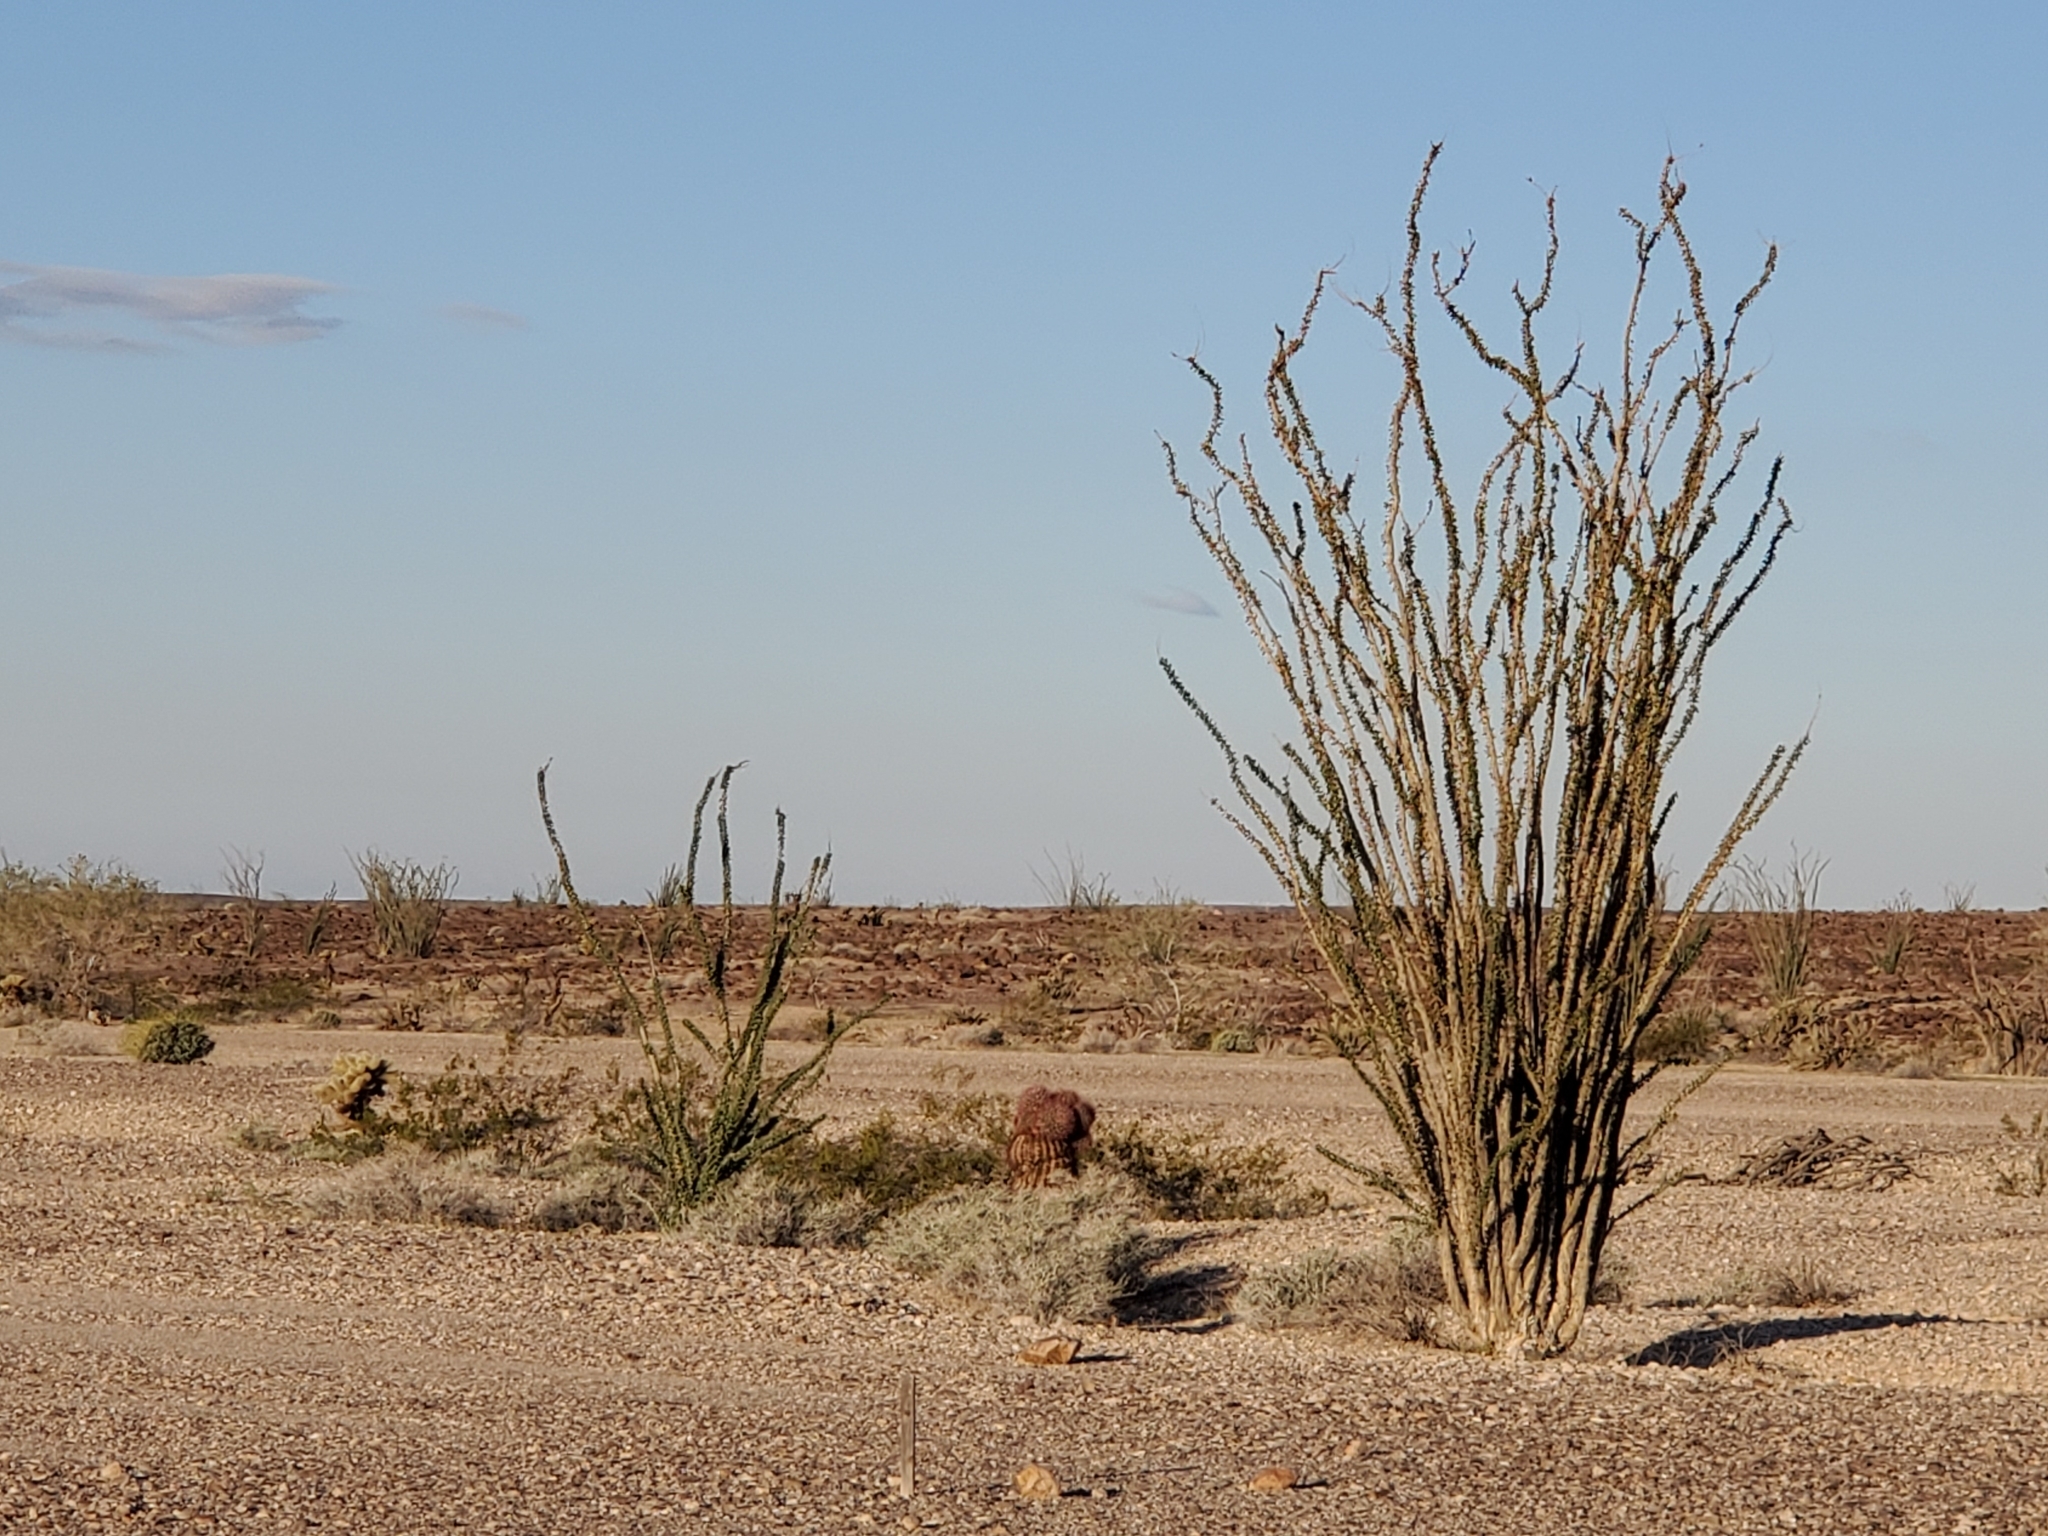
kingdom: Plantae
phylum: Tracheophyta
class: Magnoliopsida
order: Ericales
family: Fouquieriaceae
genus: Fouquieria
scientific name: Fouquieria splendens
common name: Vine-cactus
